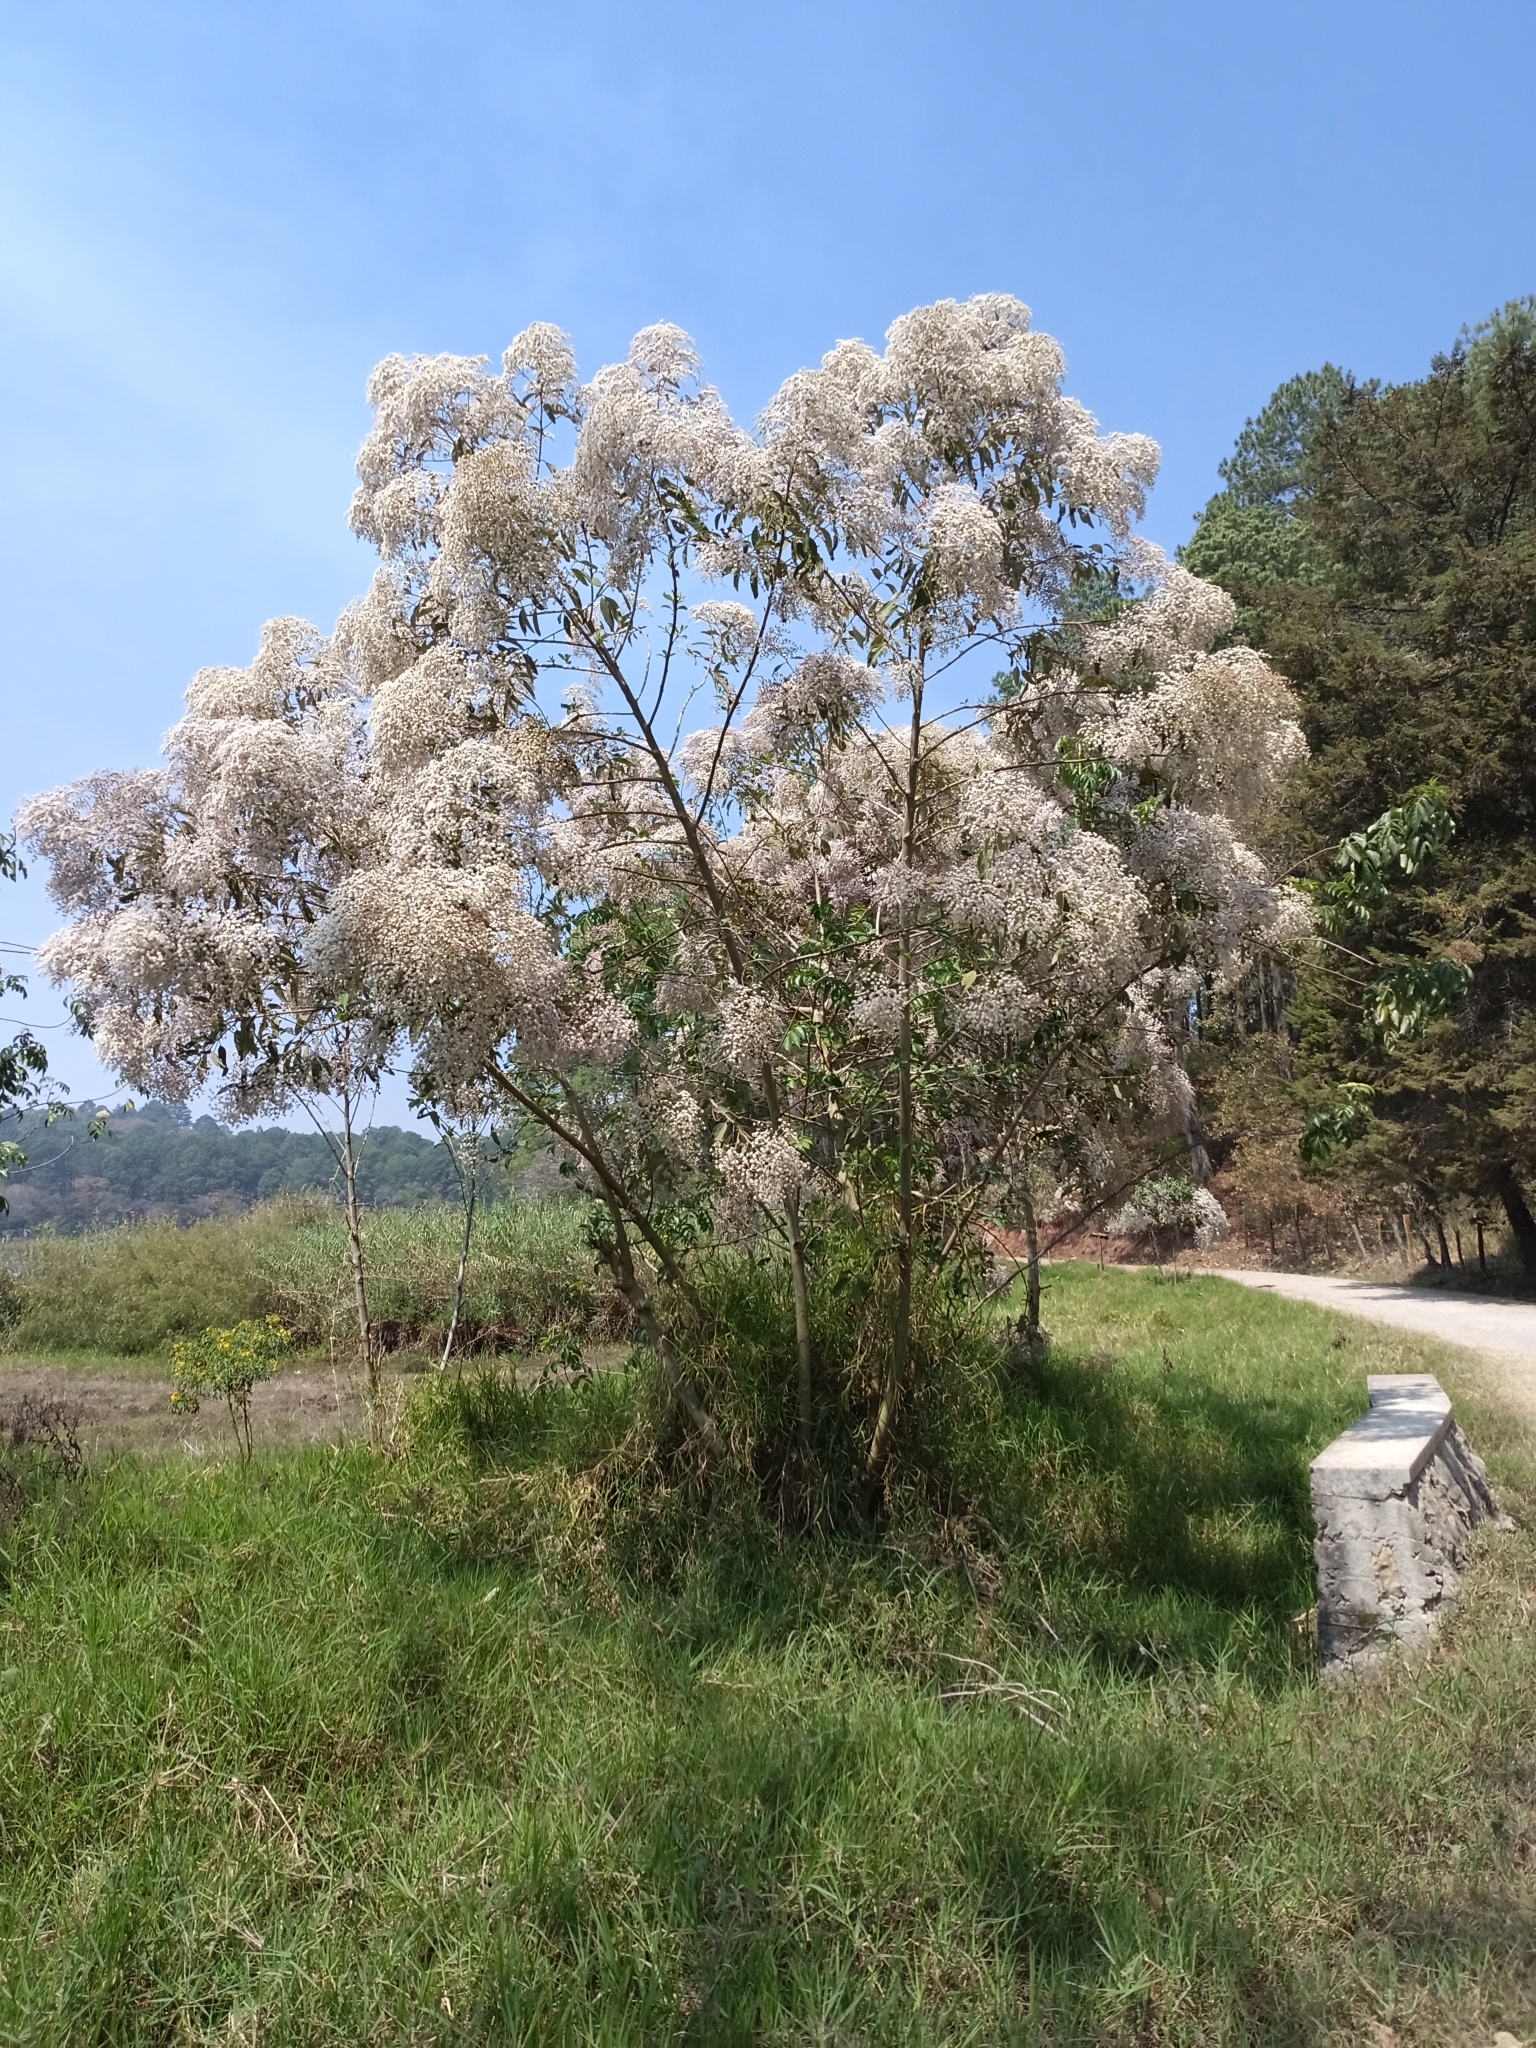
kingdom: Plantae
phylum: Tracheophyta
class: Magnoliopsida
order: Asterales
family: Asteraceae
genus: Vernonanthura
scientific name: Vernonanthura patens
